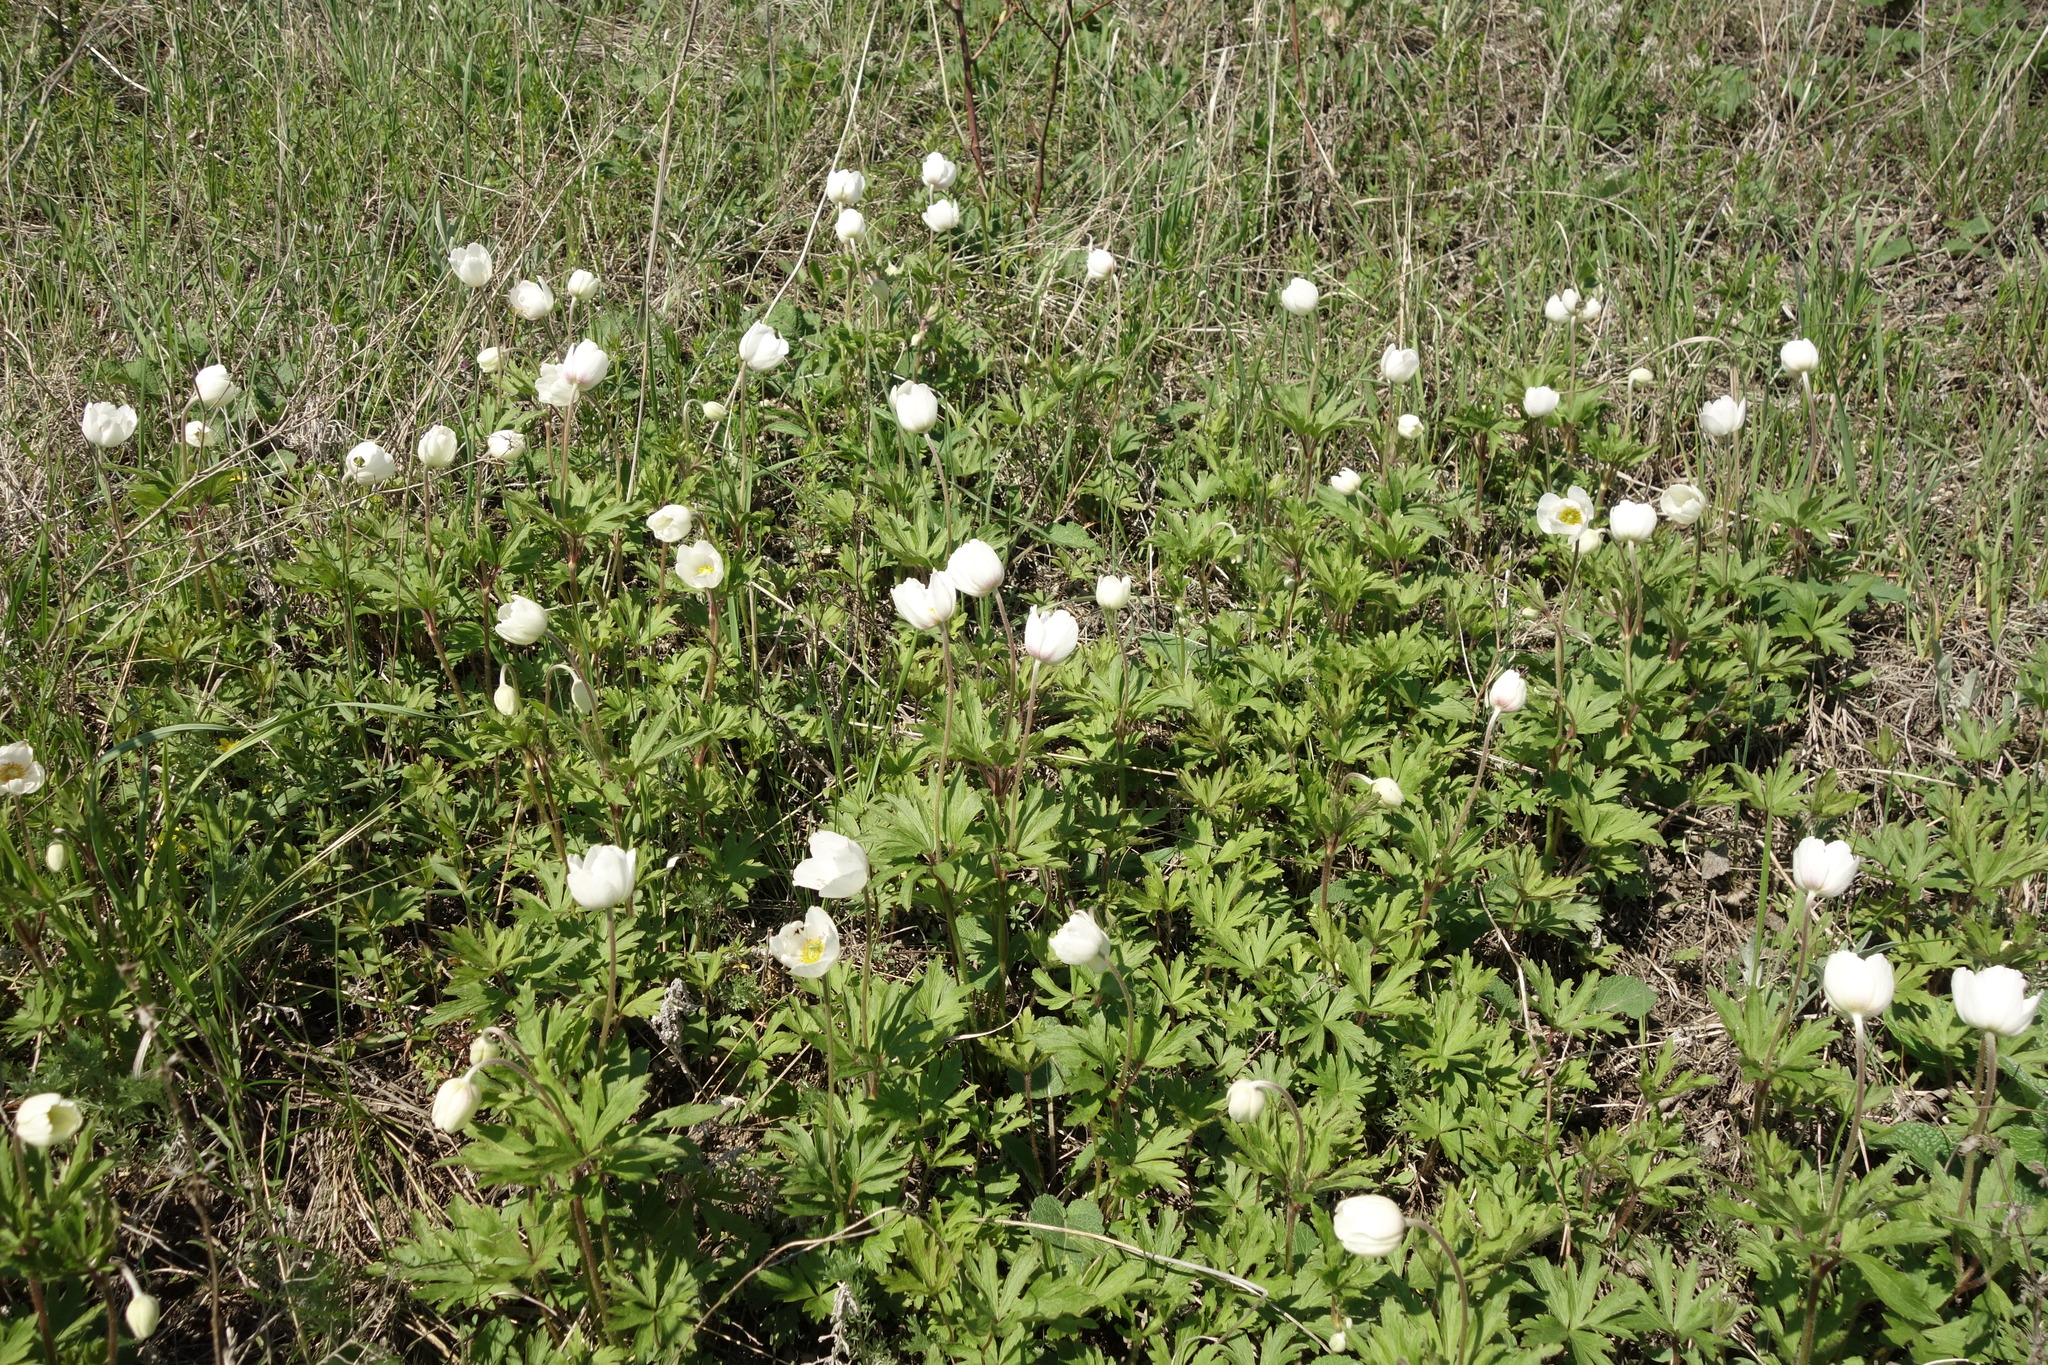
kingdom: Plantae
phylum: Tracheophyta
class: Magnoliopsida
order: Ranunculales
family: Ranunculaceae
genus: Anemone
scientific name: Anemone sylvestris
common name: Snowdrop anemone
